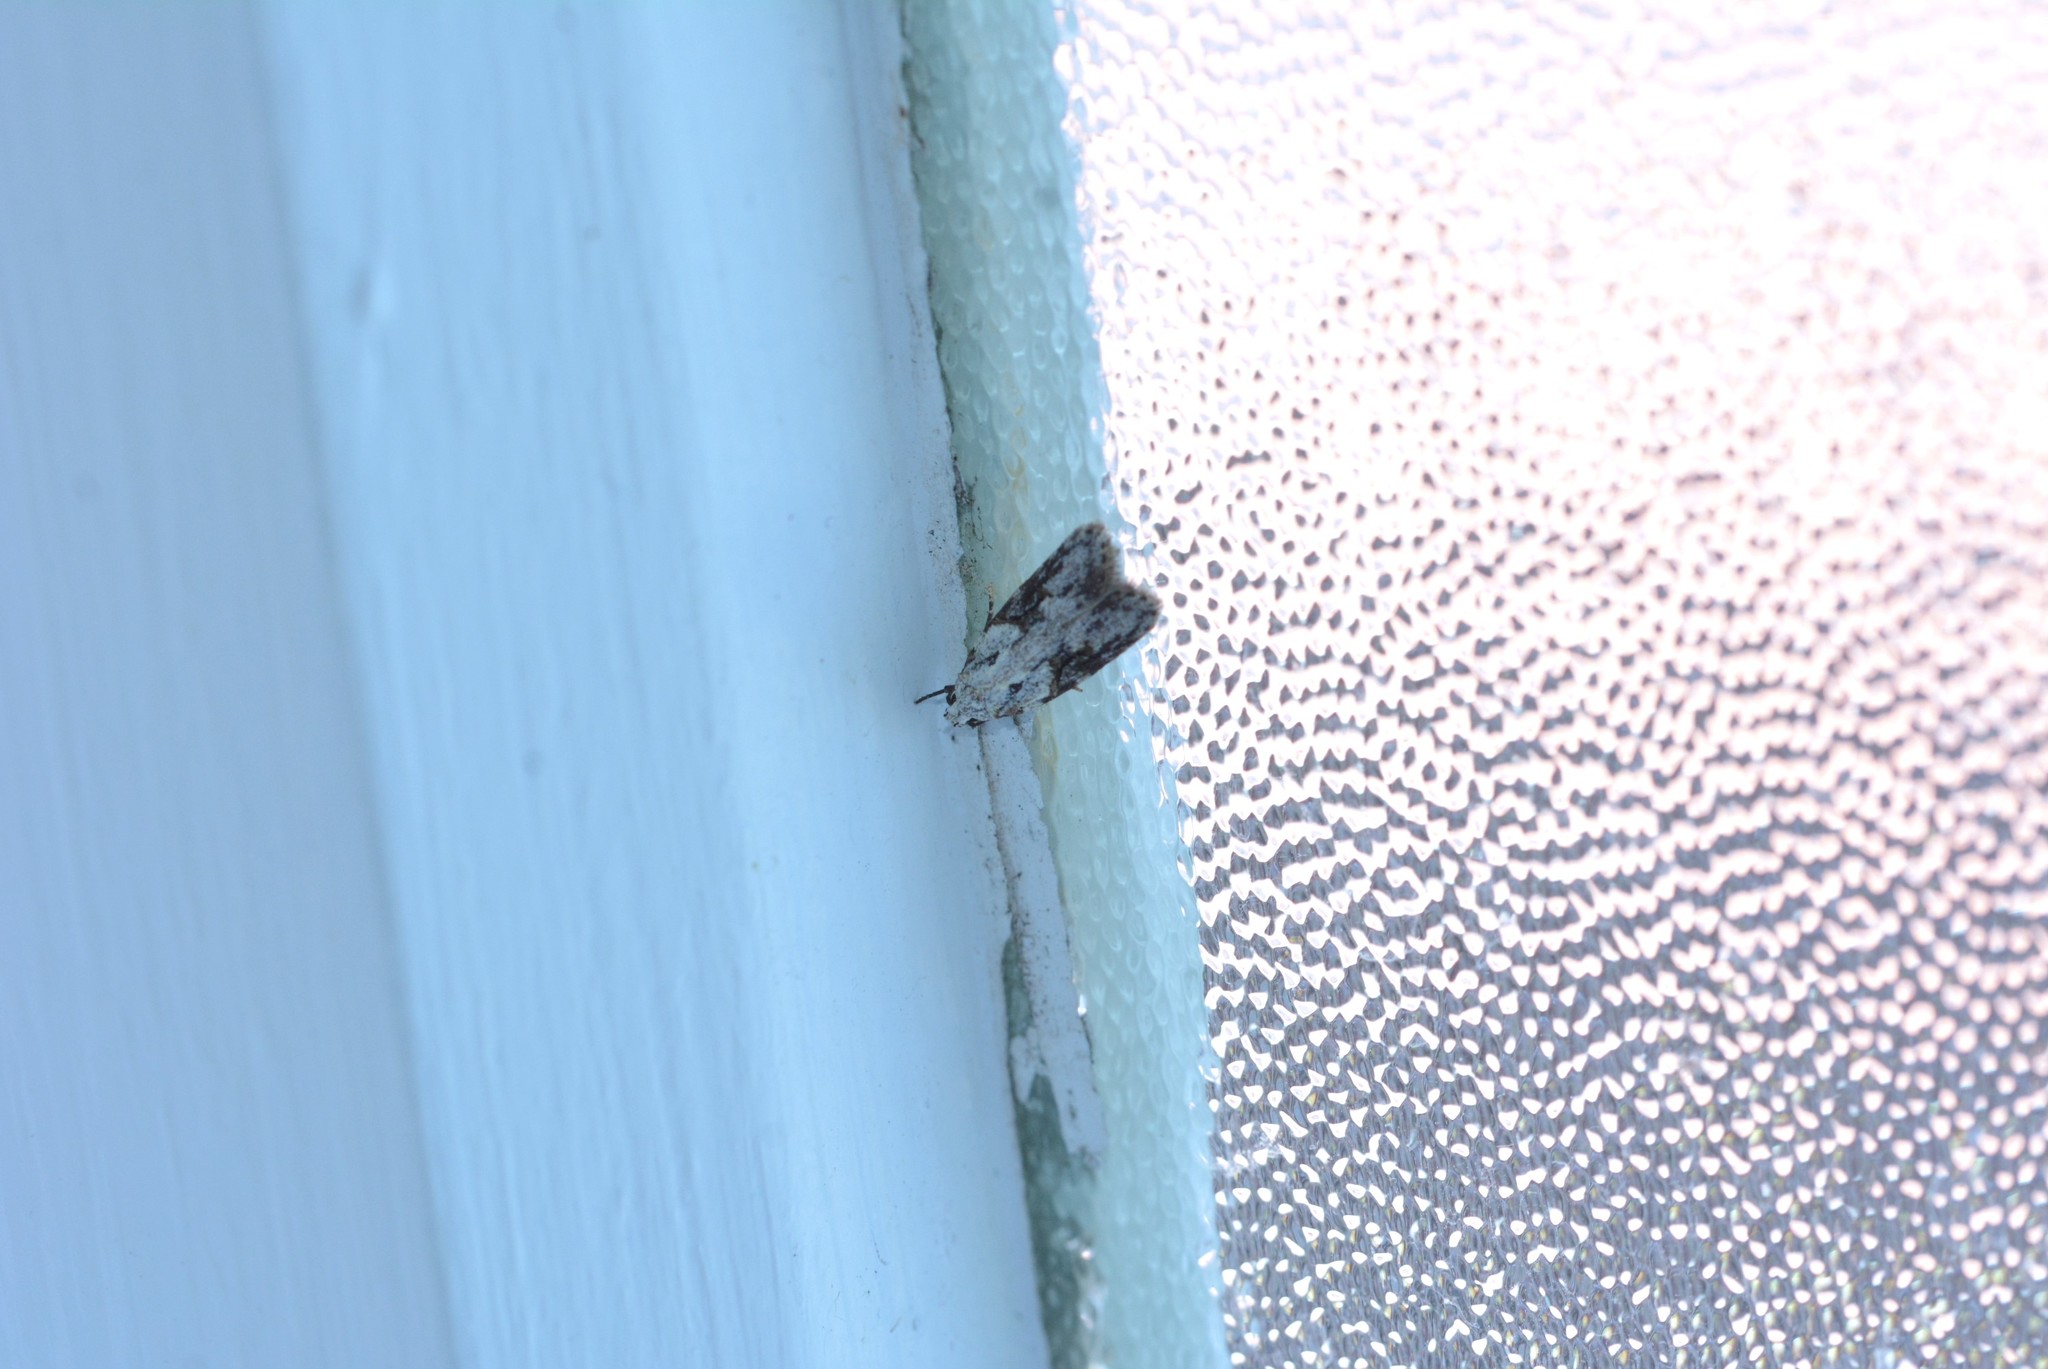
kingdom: Animalia
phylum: Arthropoda
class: Insecta
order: Lepidoptera
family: Oecophoridae
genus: Izatha
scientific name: Izatha mesoschista
